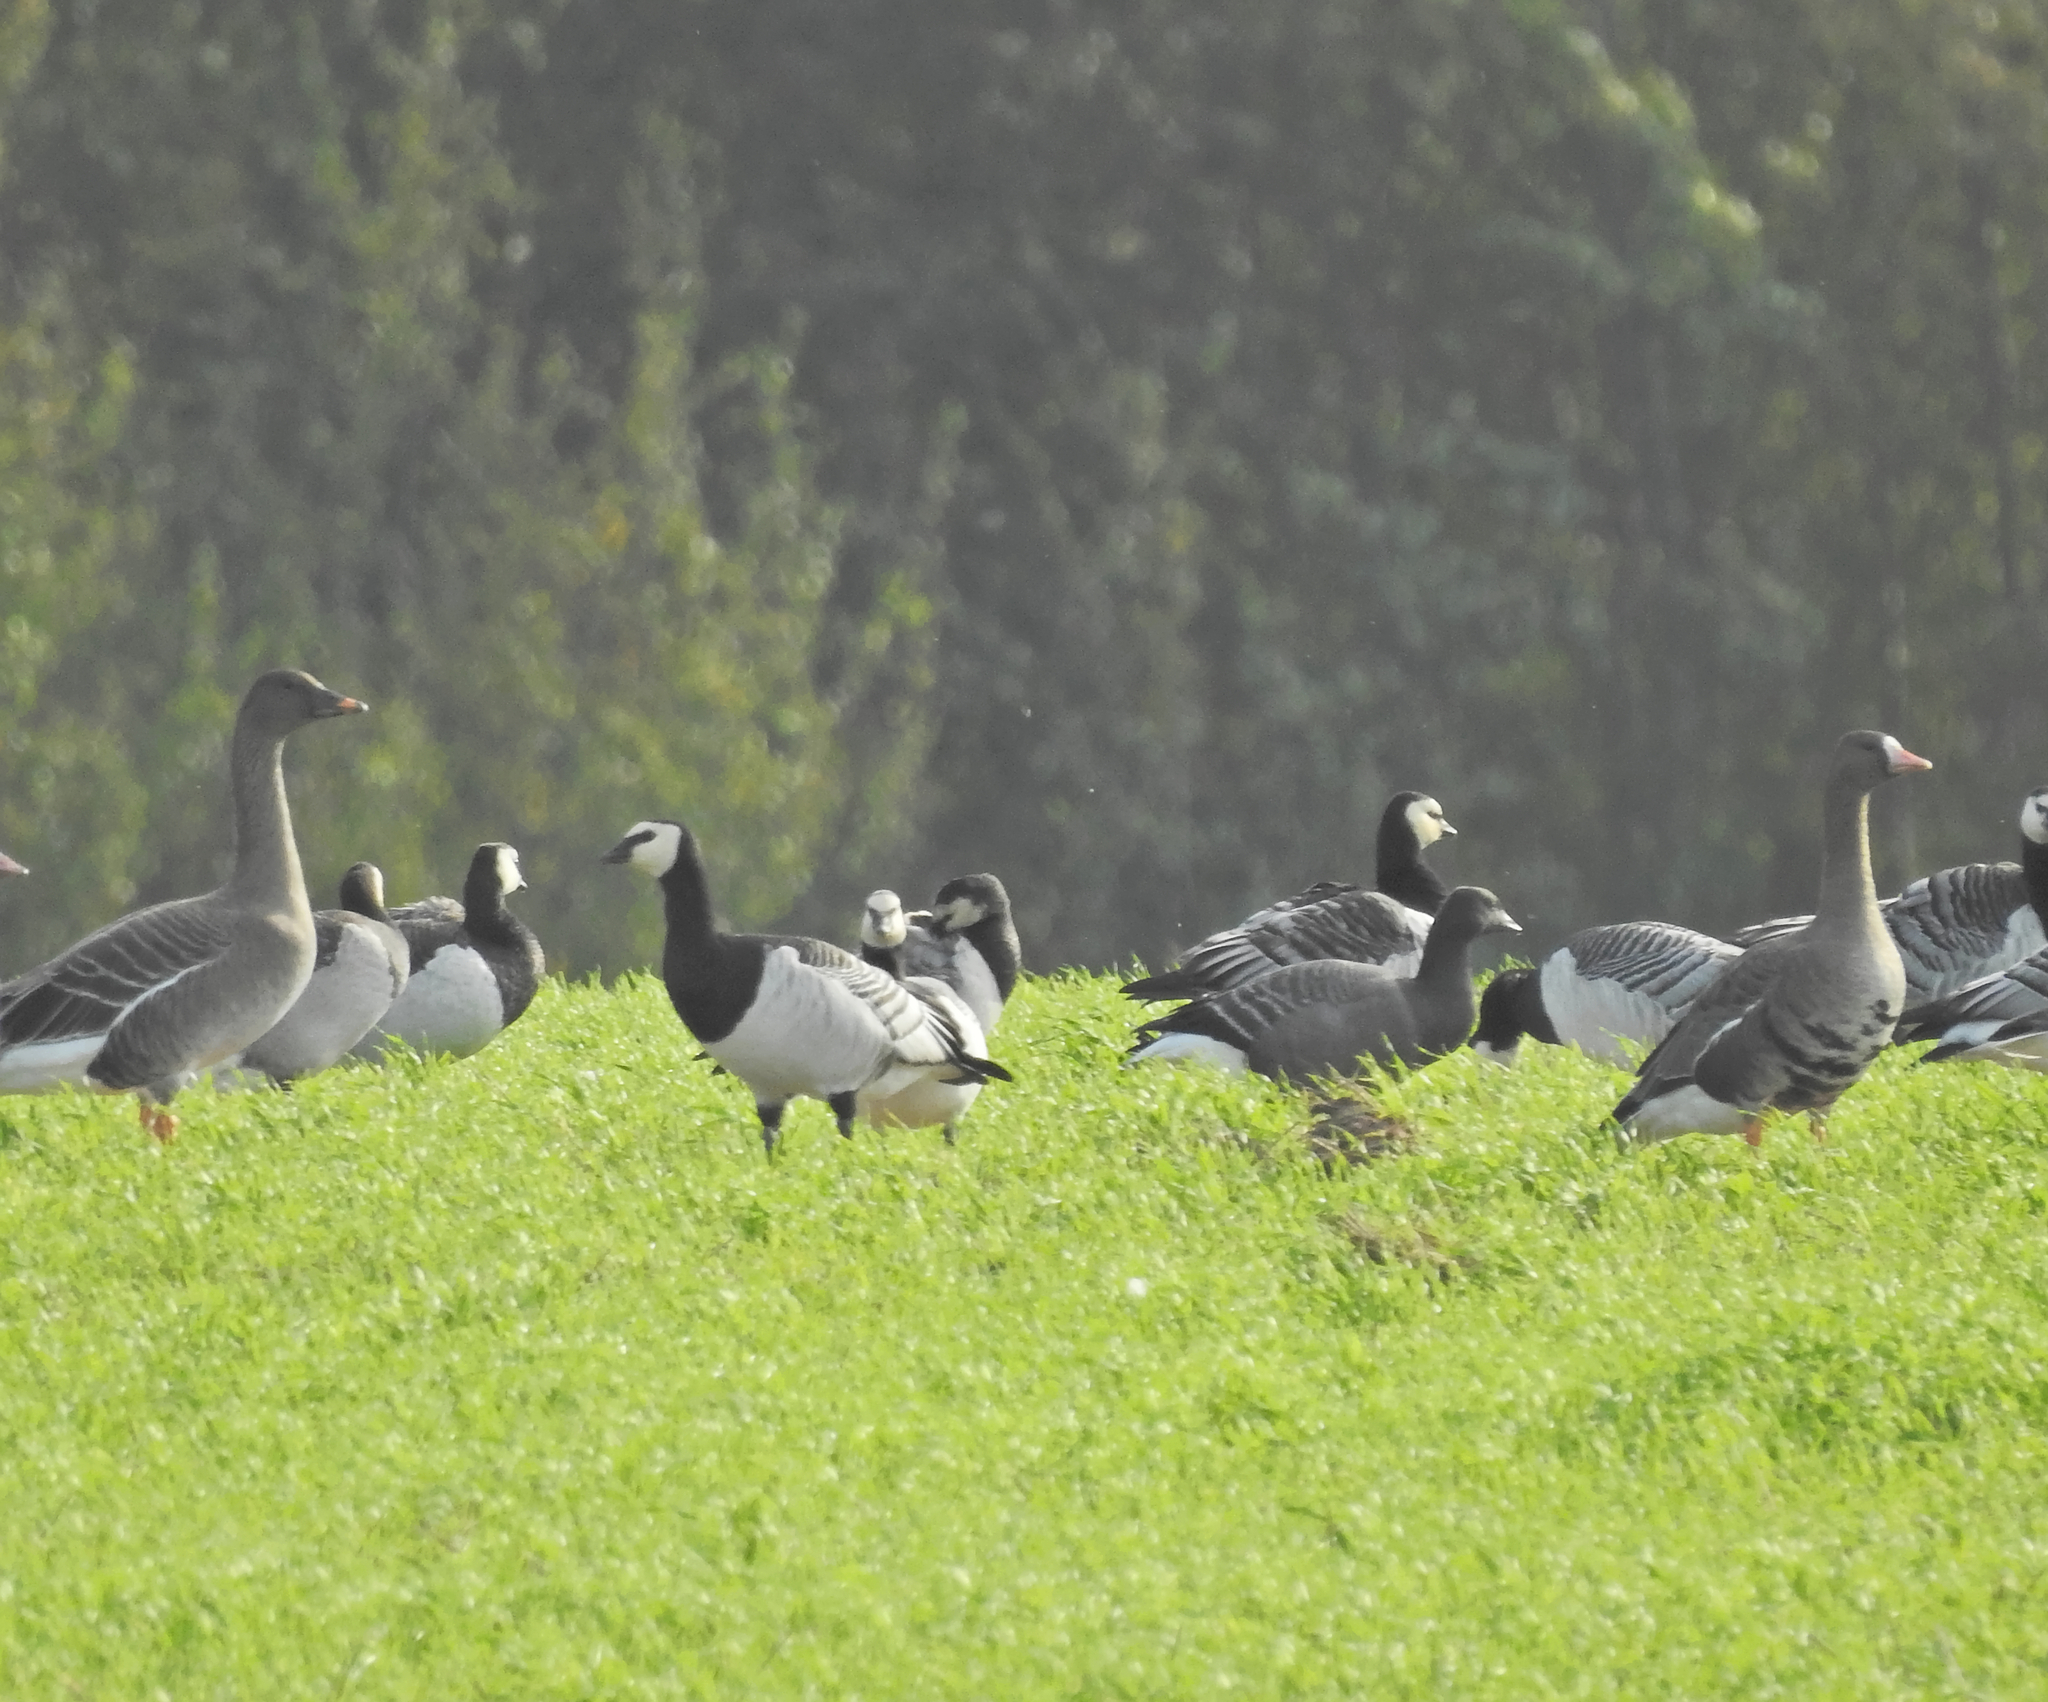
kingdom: Animalia
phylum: Chordata
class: Aves
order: Anseriformes
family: Anatidae
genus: Anser
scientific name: Anser serrirostris
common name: Tundra bean goose
